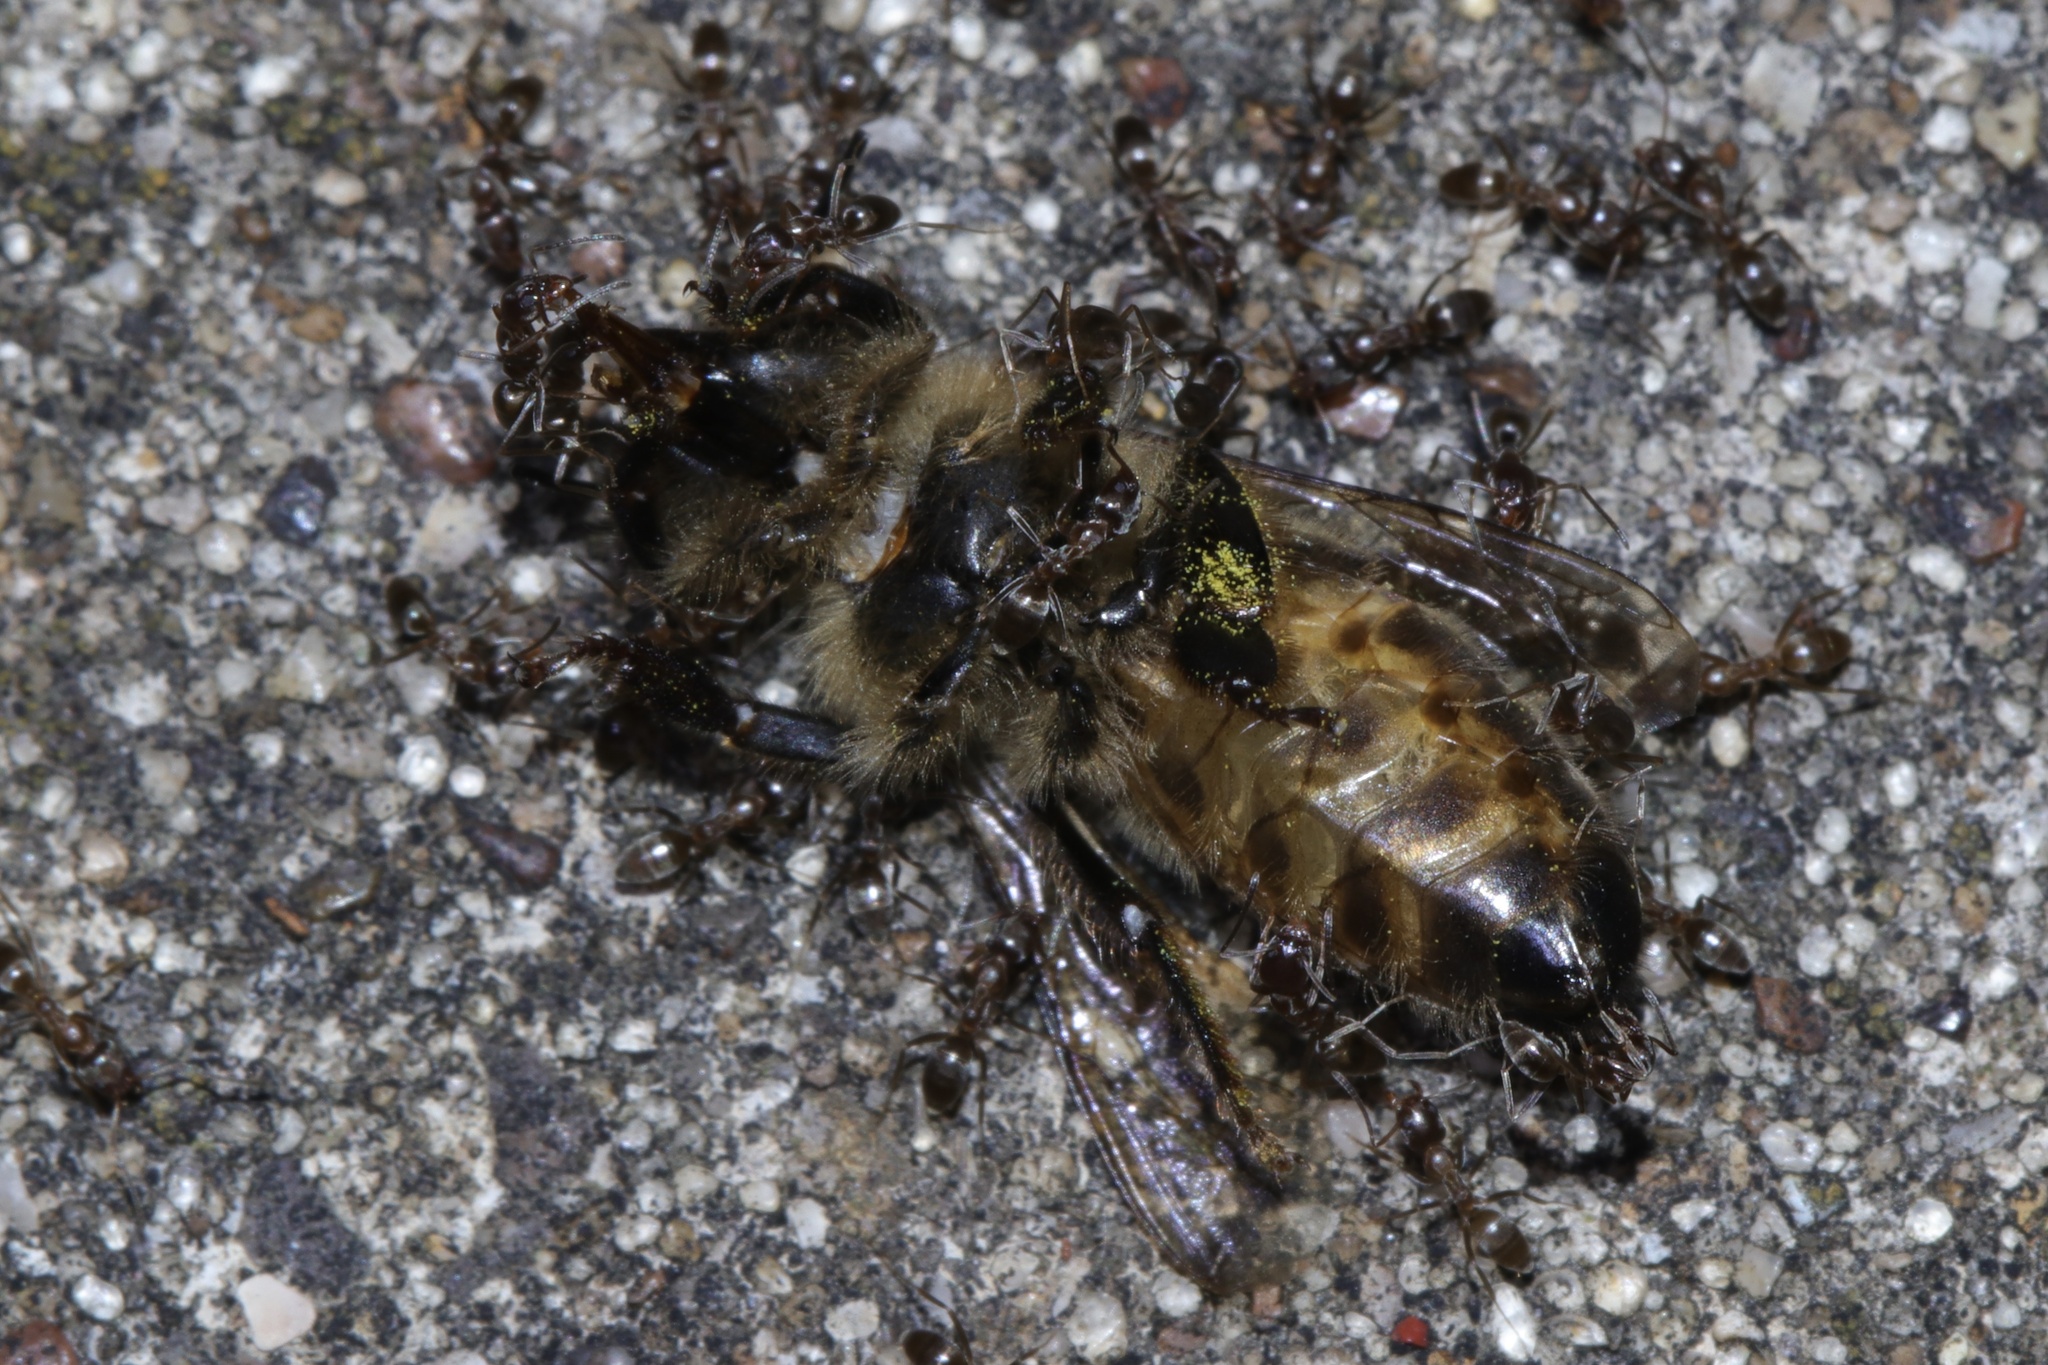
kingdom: Animalia
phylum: Arthropoda
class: Insecta
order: Hymenoptera
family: Formicidae
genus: Linepithema
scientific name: Linepithema humile
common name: Argentine ant
